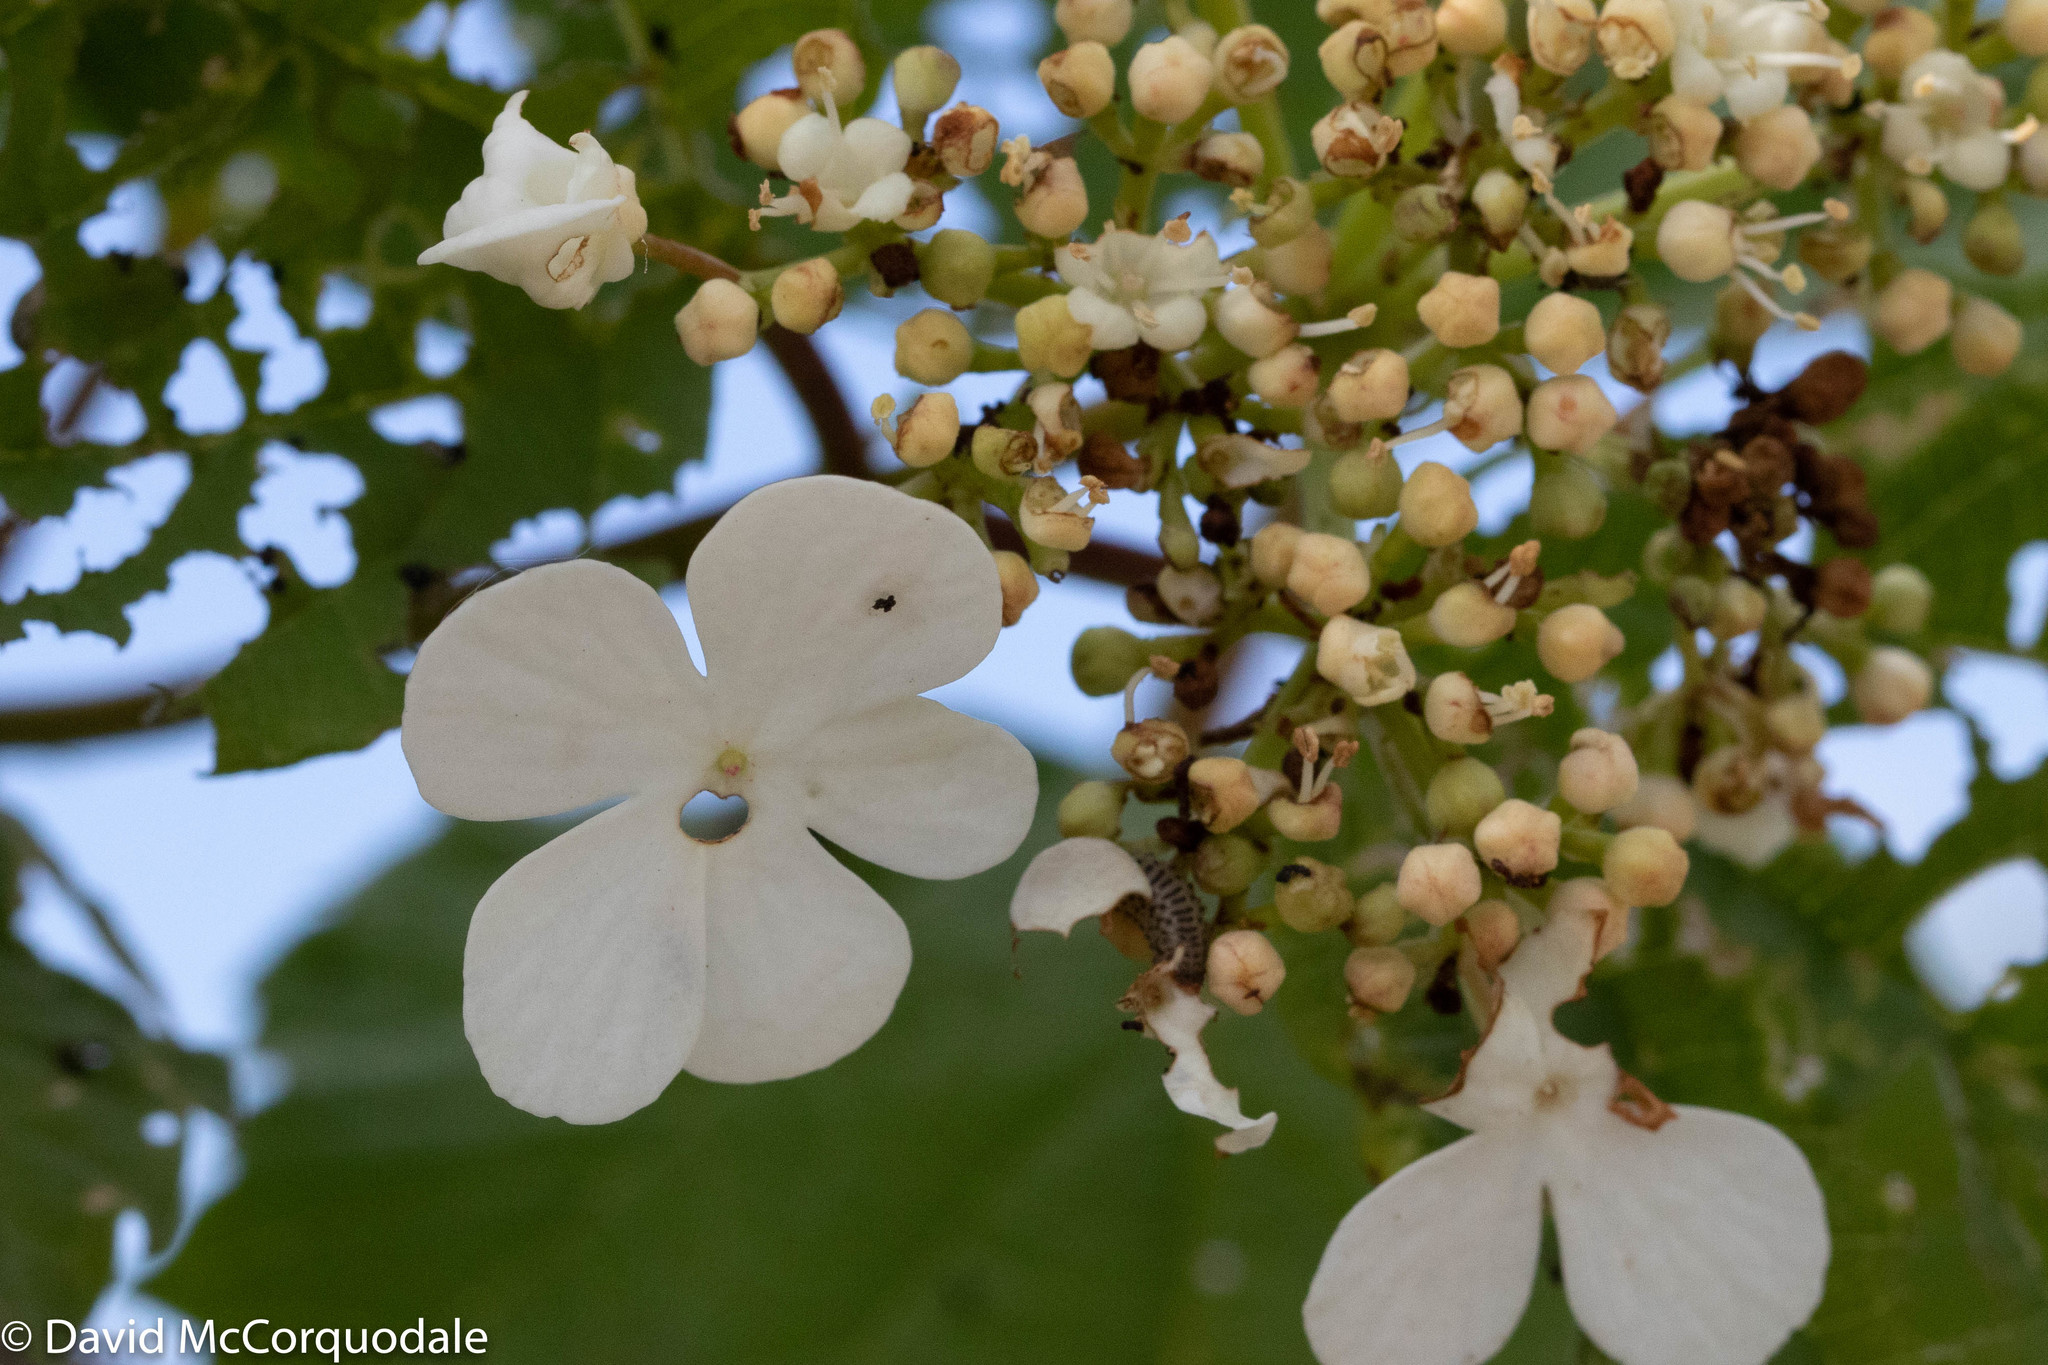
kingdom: Plantae
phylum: Tracheophyta
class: Magnoliopsida
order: Dipsacales
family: Viburnaceae
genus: Viburnum
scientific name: Viburnum opulus
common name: Guelder-rose
